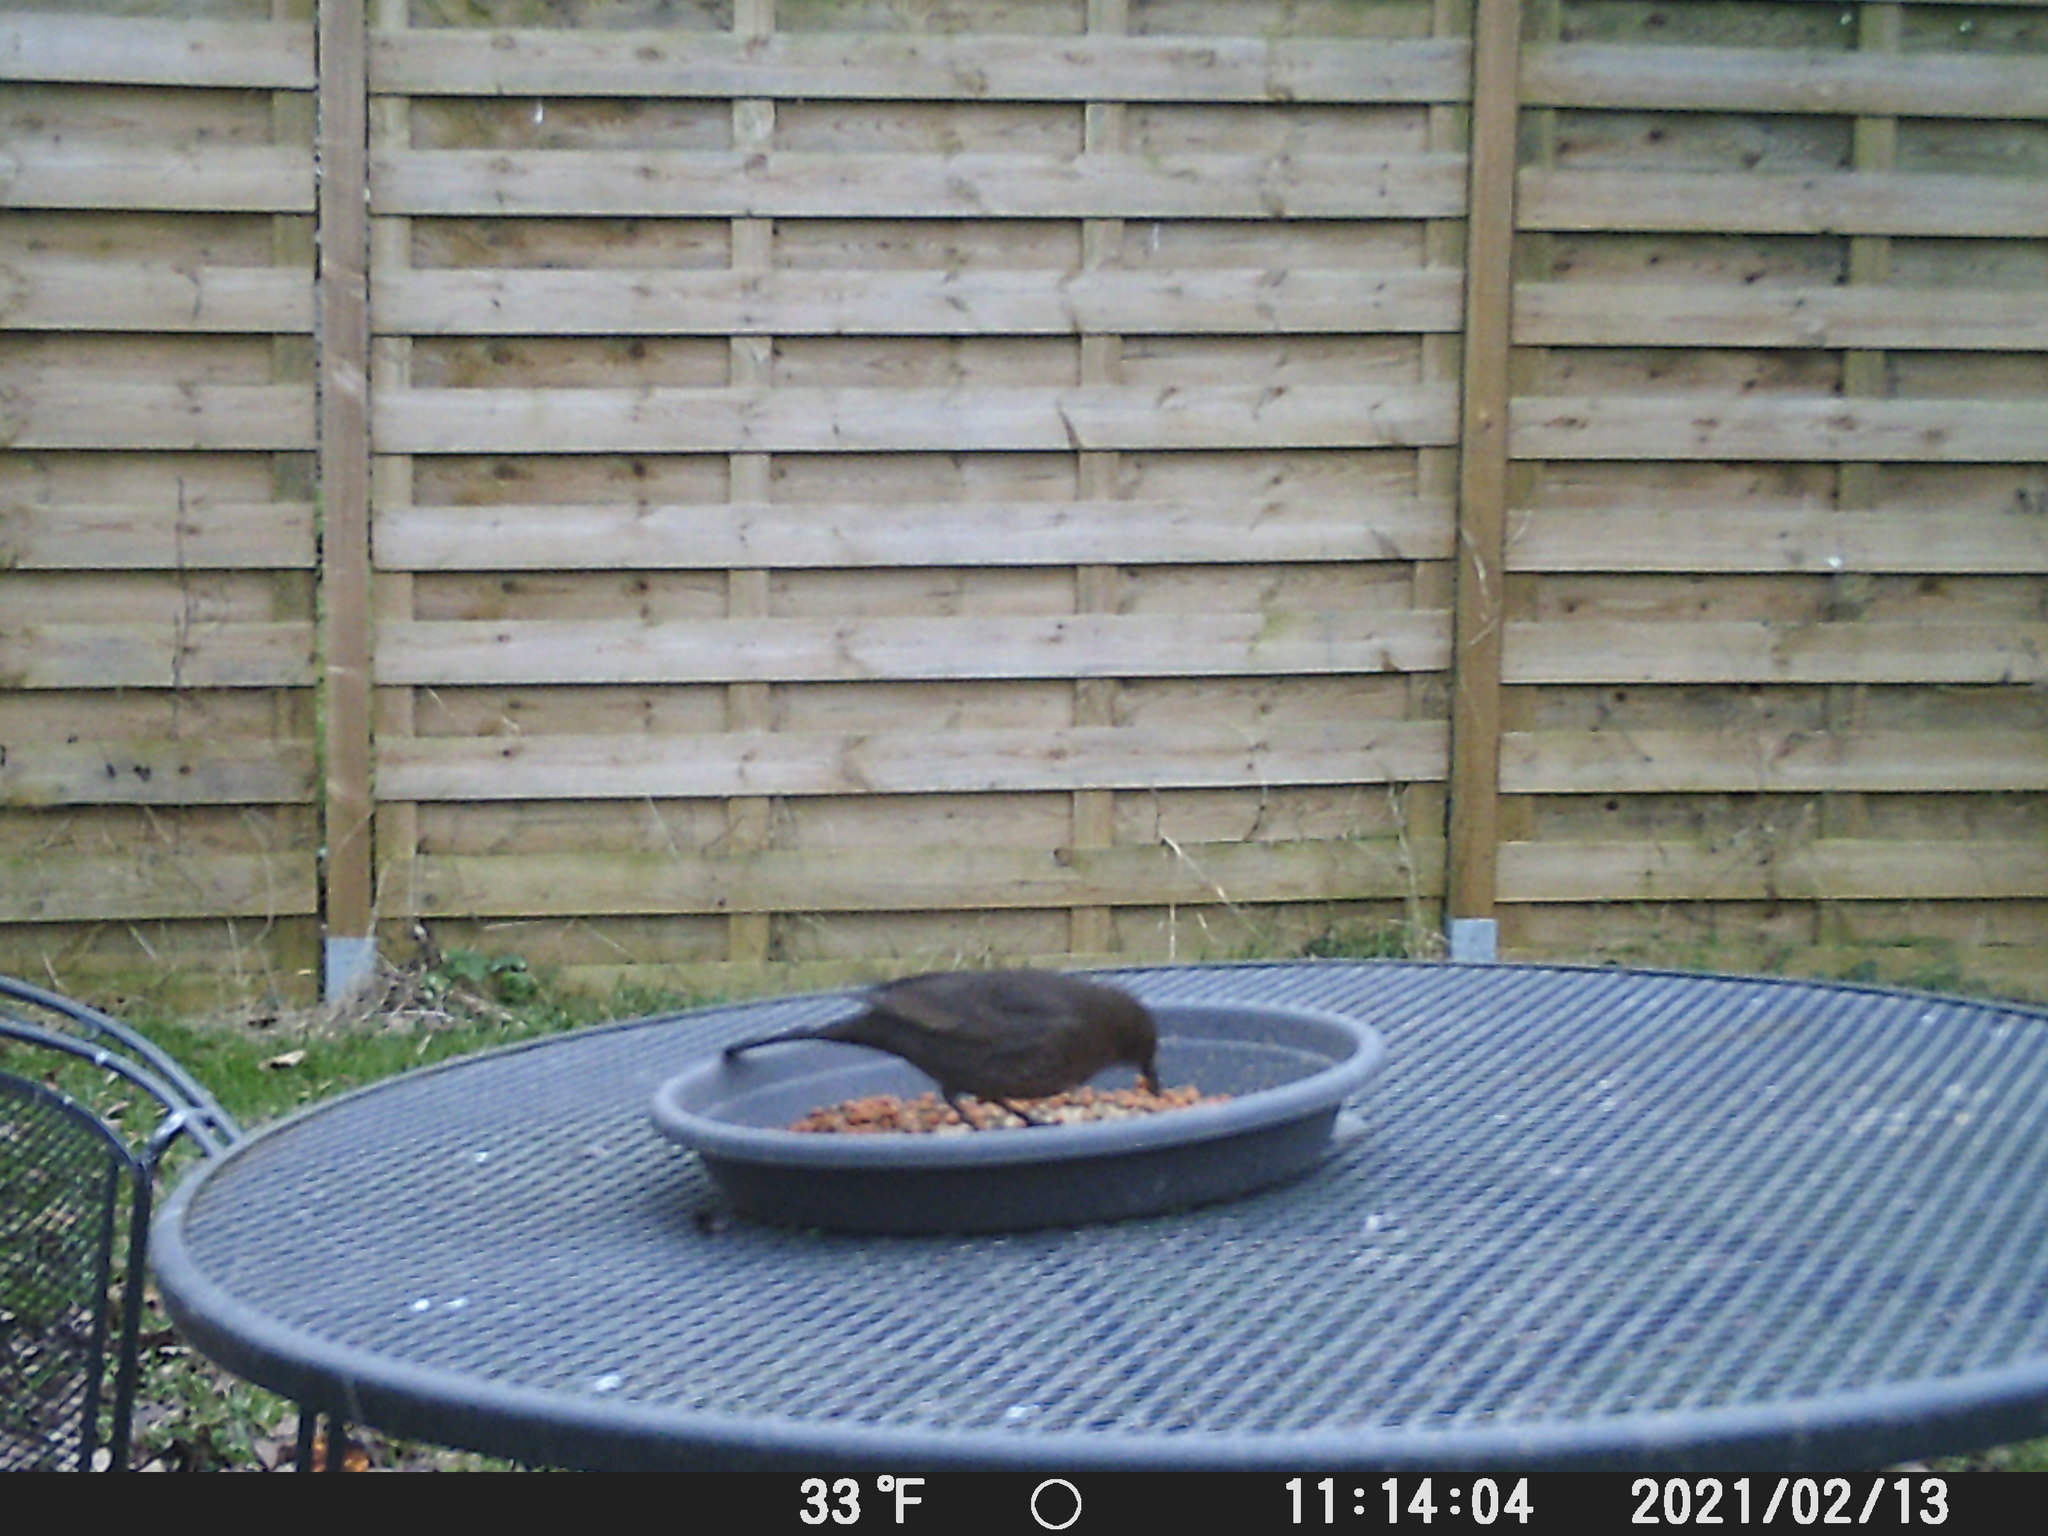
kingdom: Animalia
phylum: Chordata
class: Aves
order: Passeriformes
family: Turdidae
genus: Turdus
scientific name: Turdus merula
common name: Common blackbird
